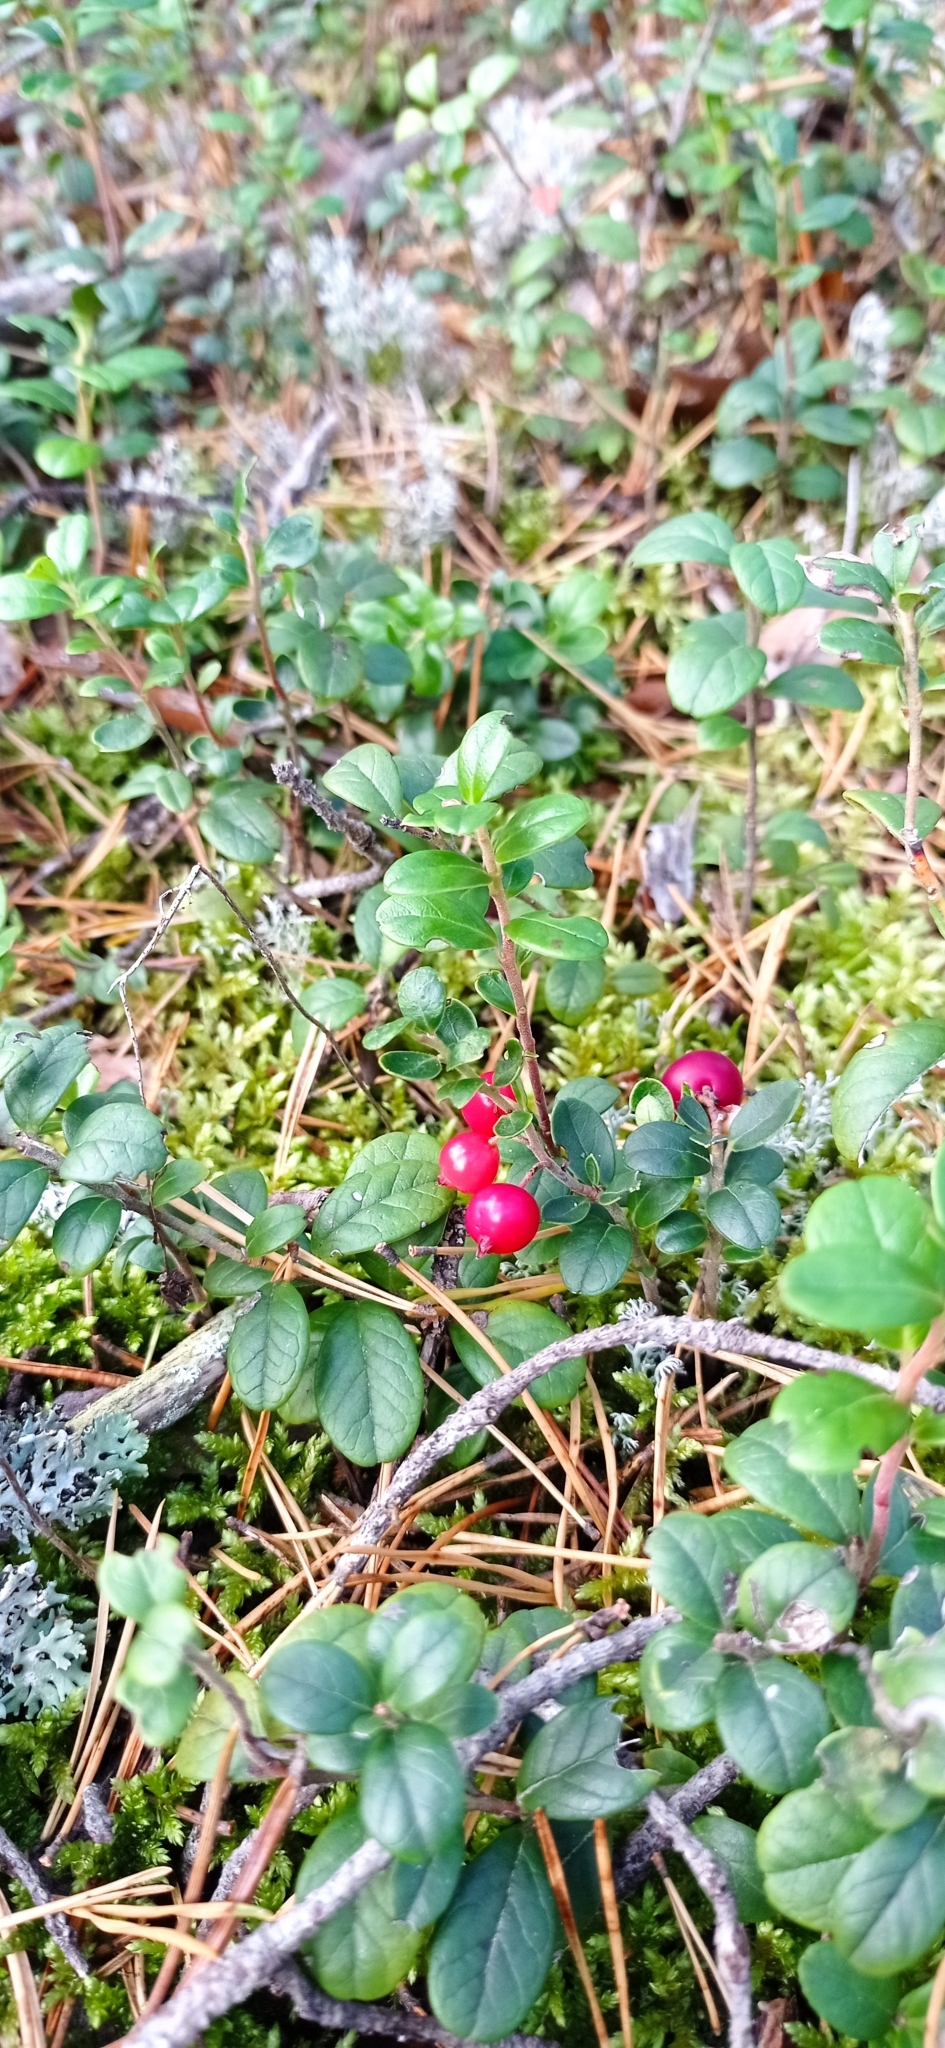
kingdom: Plantae
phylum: Tracheophyta
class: Magnoliopsida
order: Ericales
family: Ericaceae
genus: Vaccinium
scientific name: Vaccinium vitis-idaea
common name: Cowberry
